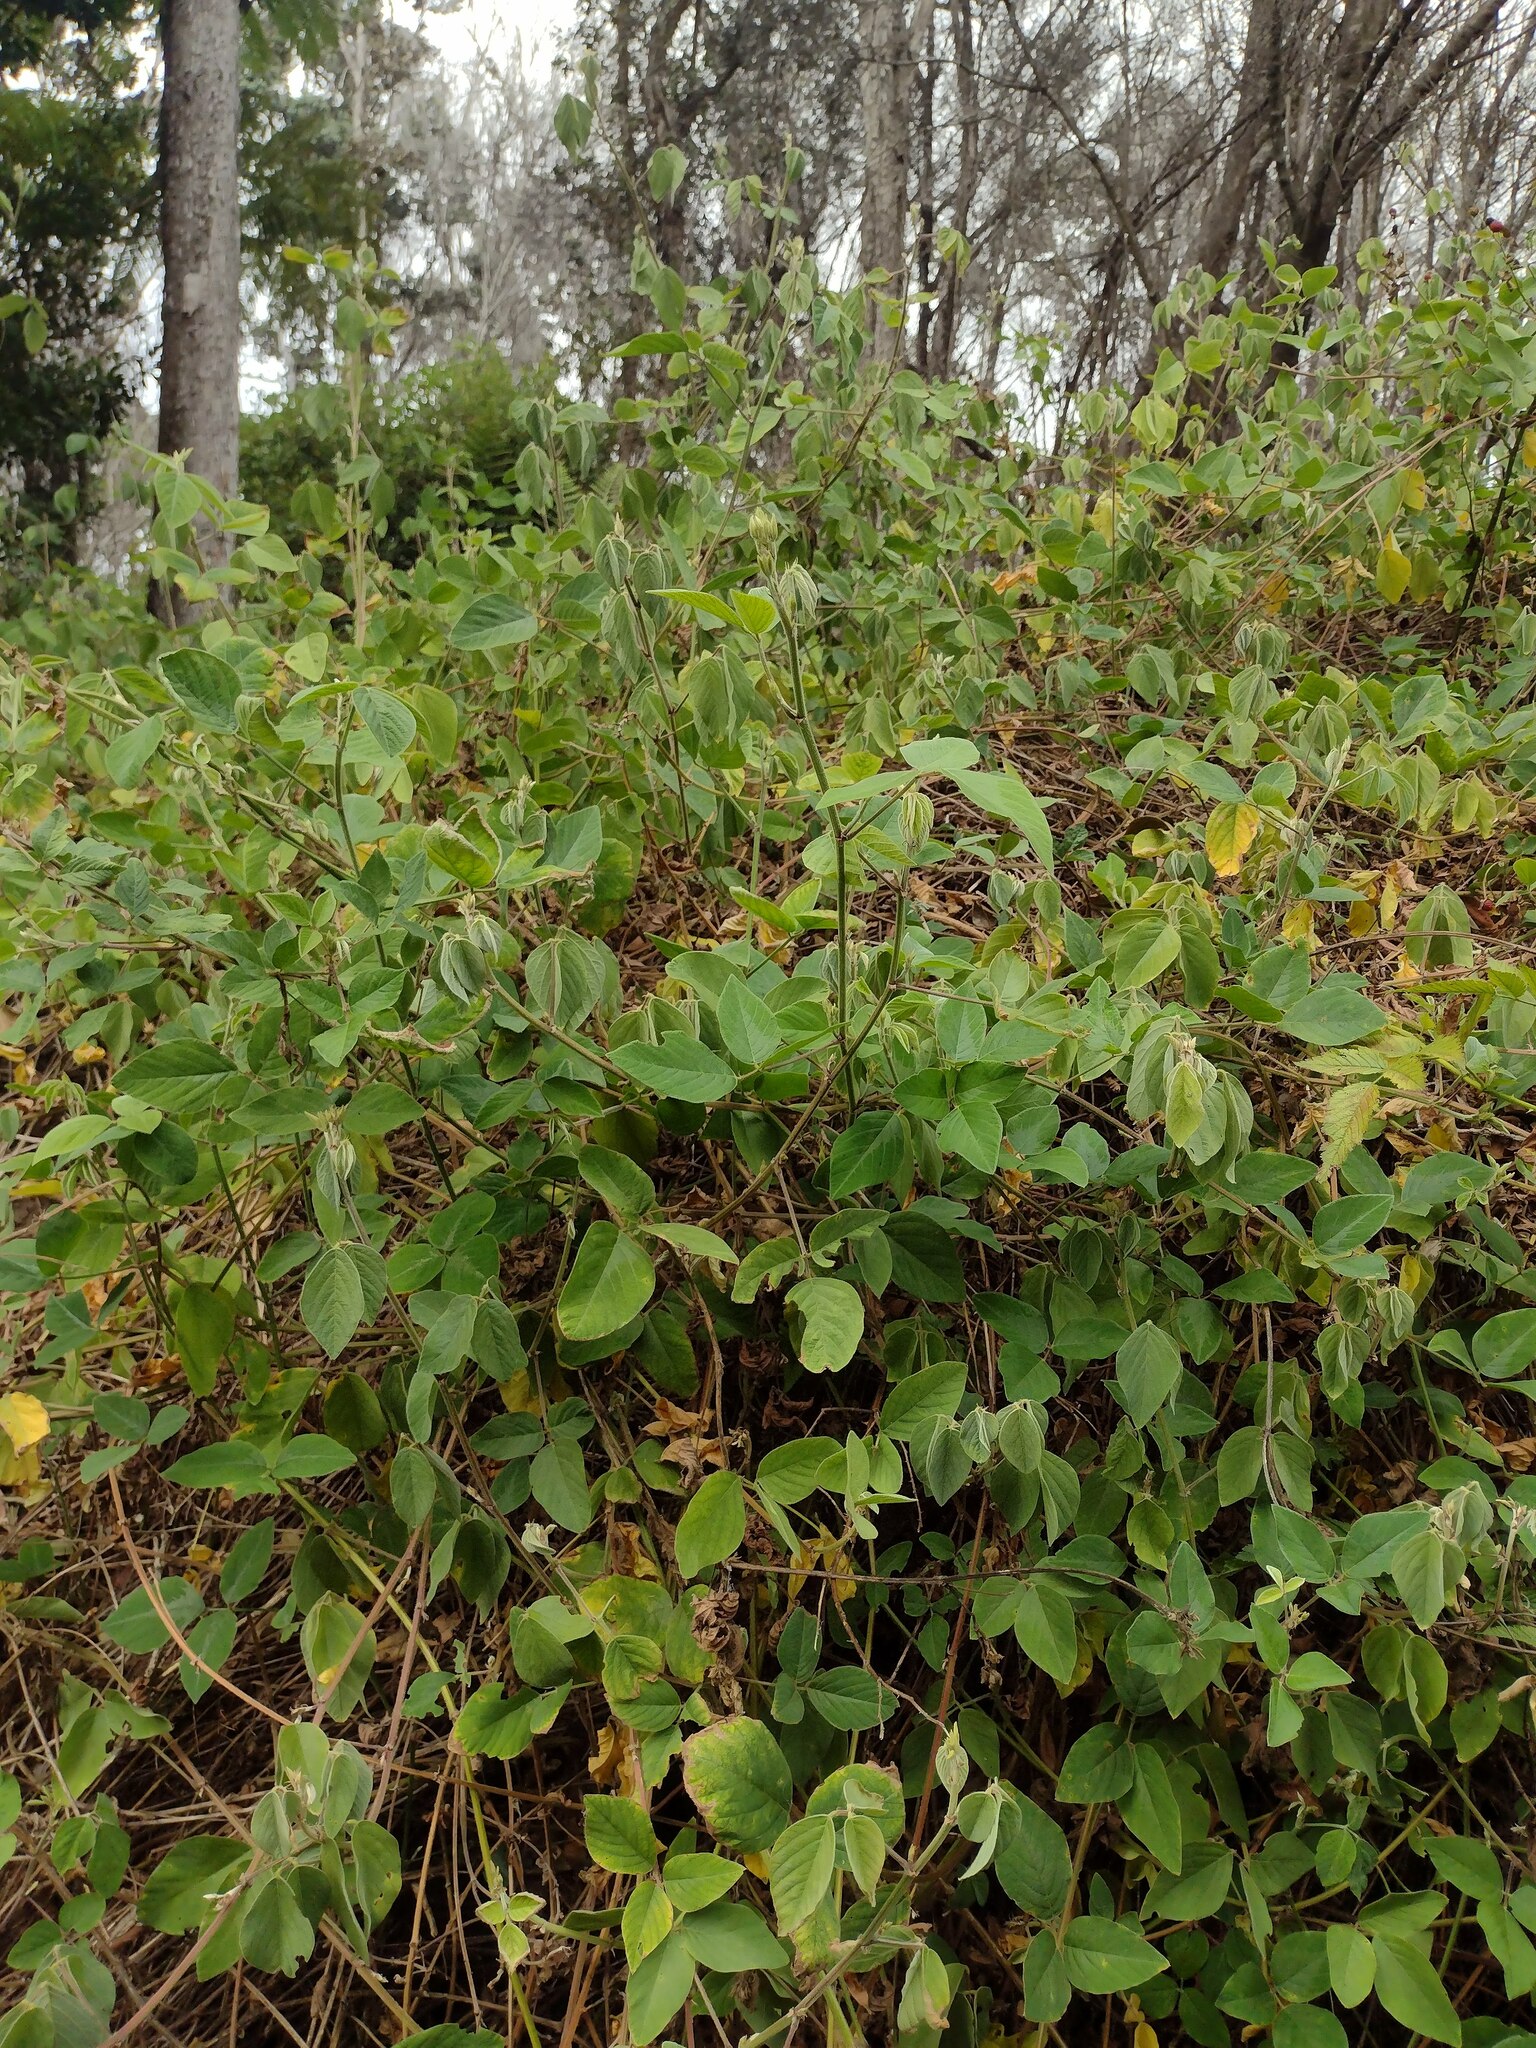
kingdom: Plantae
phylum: Tracheophyta
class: Magnoliopsida
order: Fabales
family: Fabaceae
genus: Desmodium
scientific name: Desmodium intortum
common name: Greenleaf ticktrefoil
